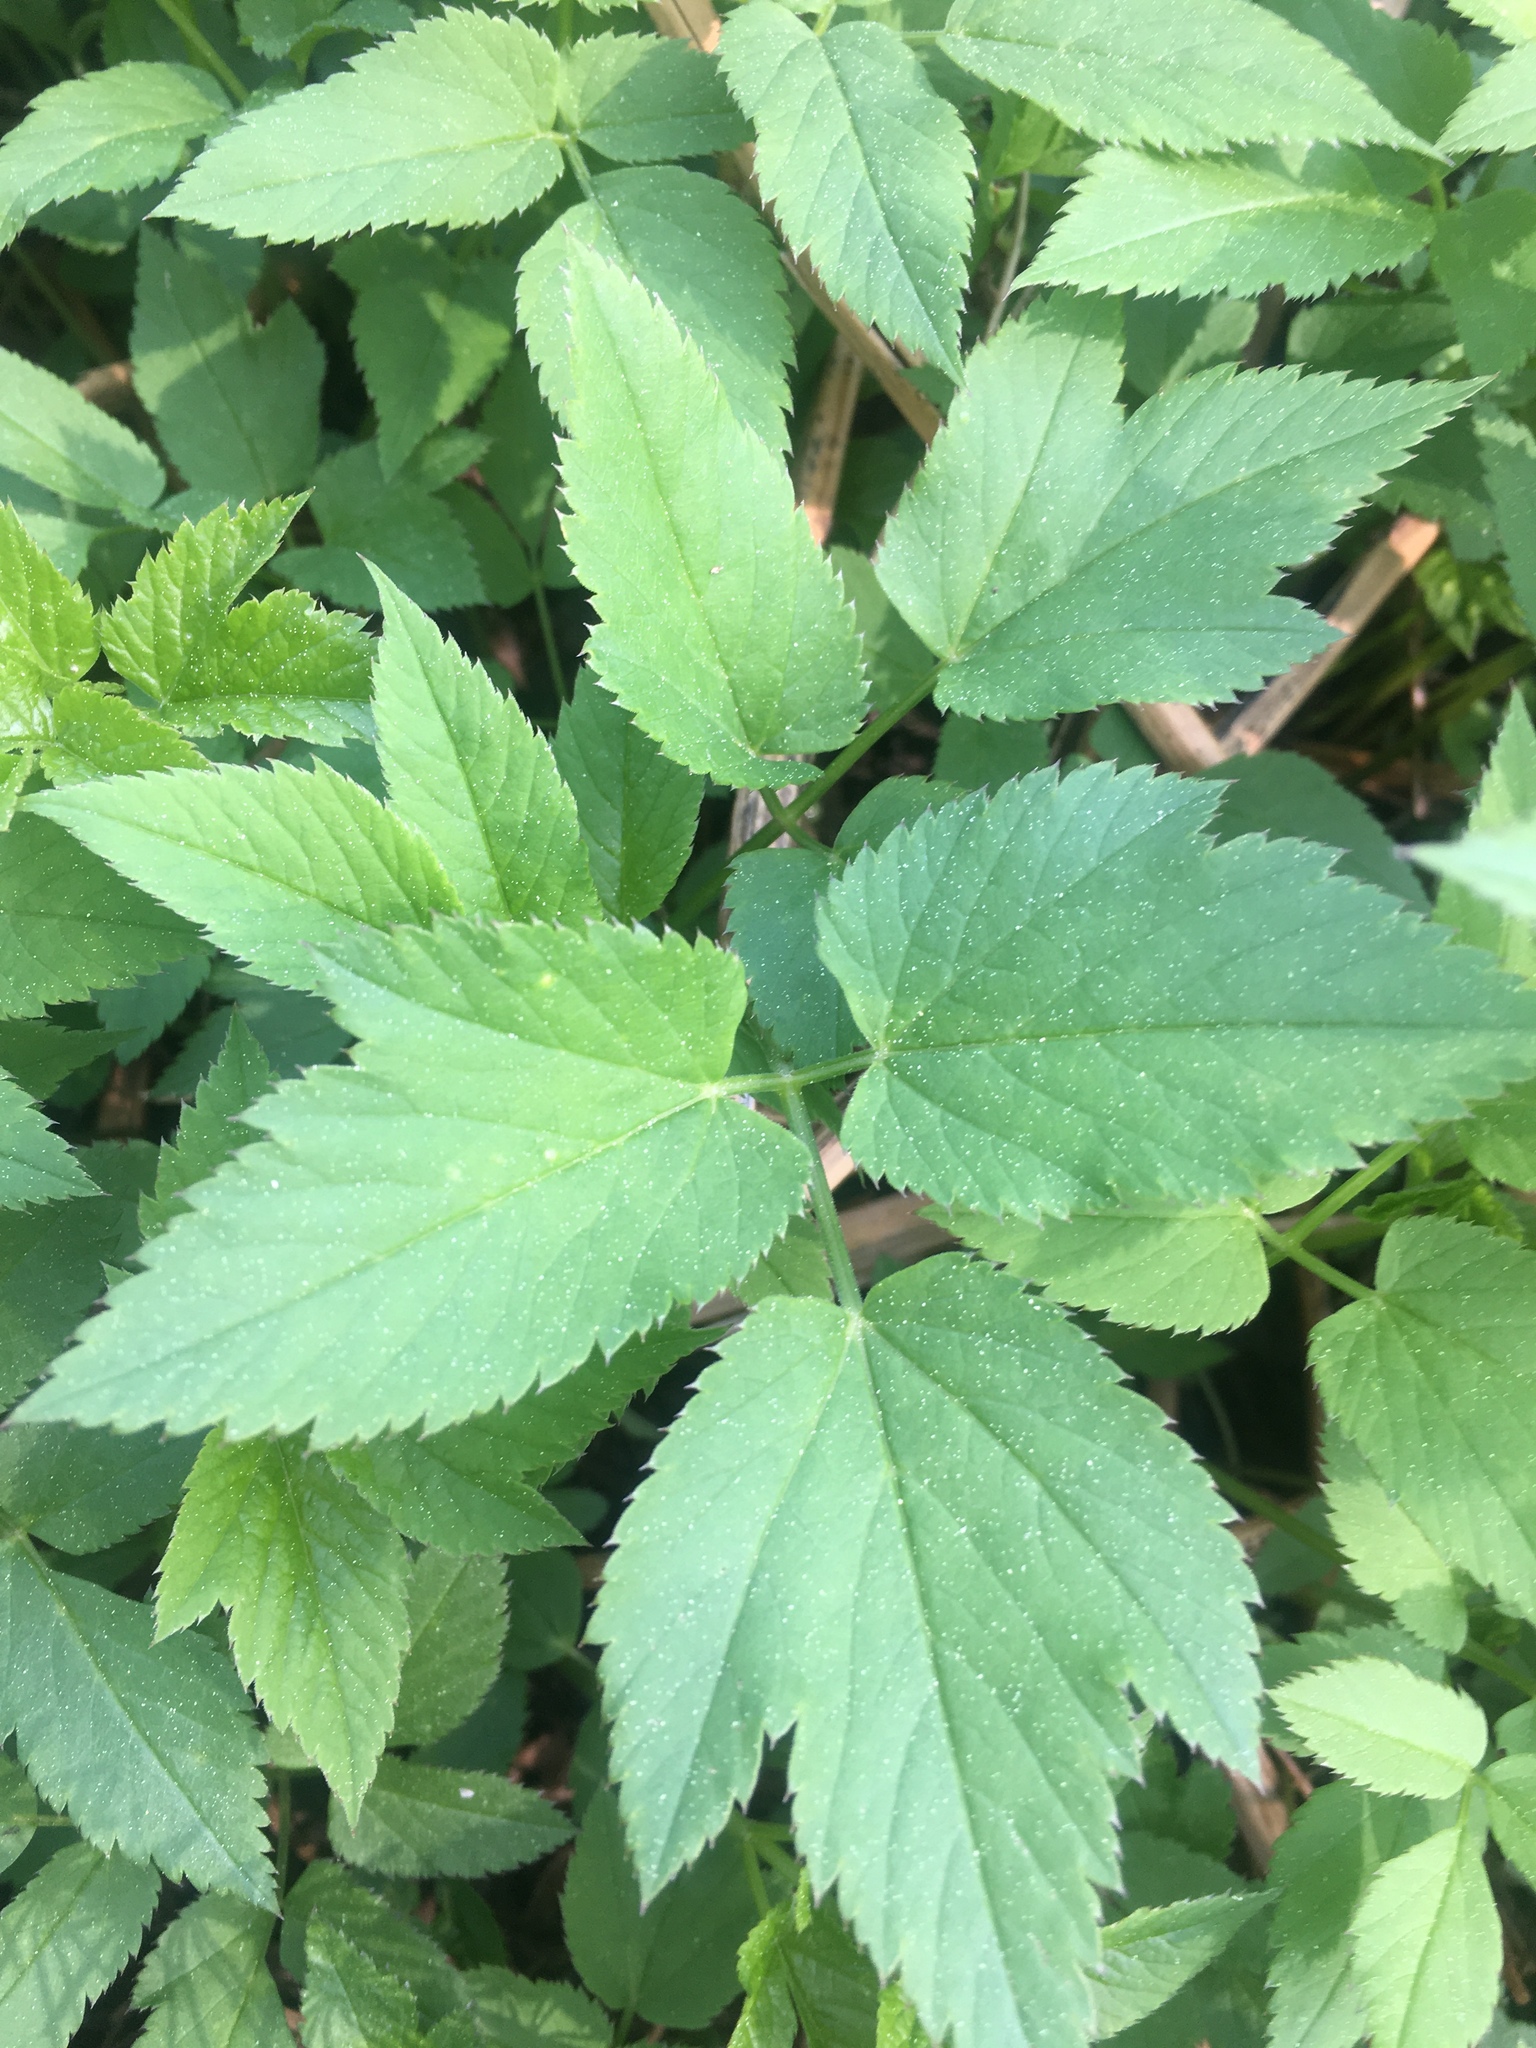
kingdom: Plantae
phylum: Tracheophyta
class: Magnoliopsida
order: Apiales
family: Apiaceae
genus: Aegopodium
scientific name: Aegopodium podagraria
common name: Ground-elder
